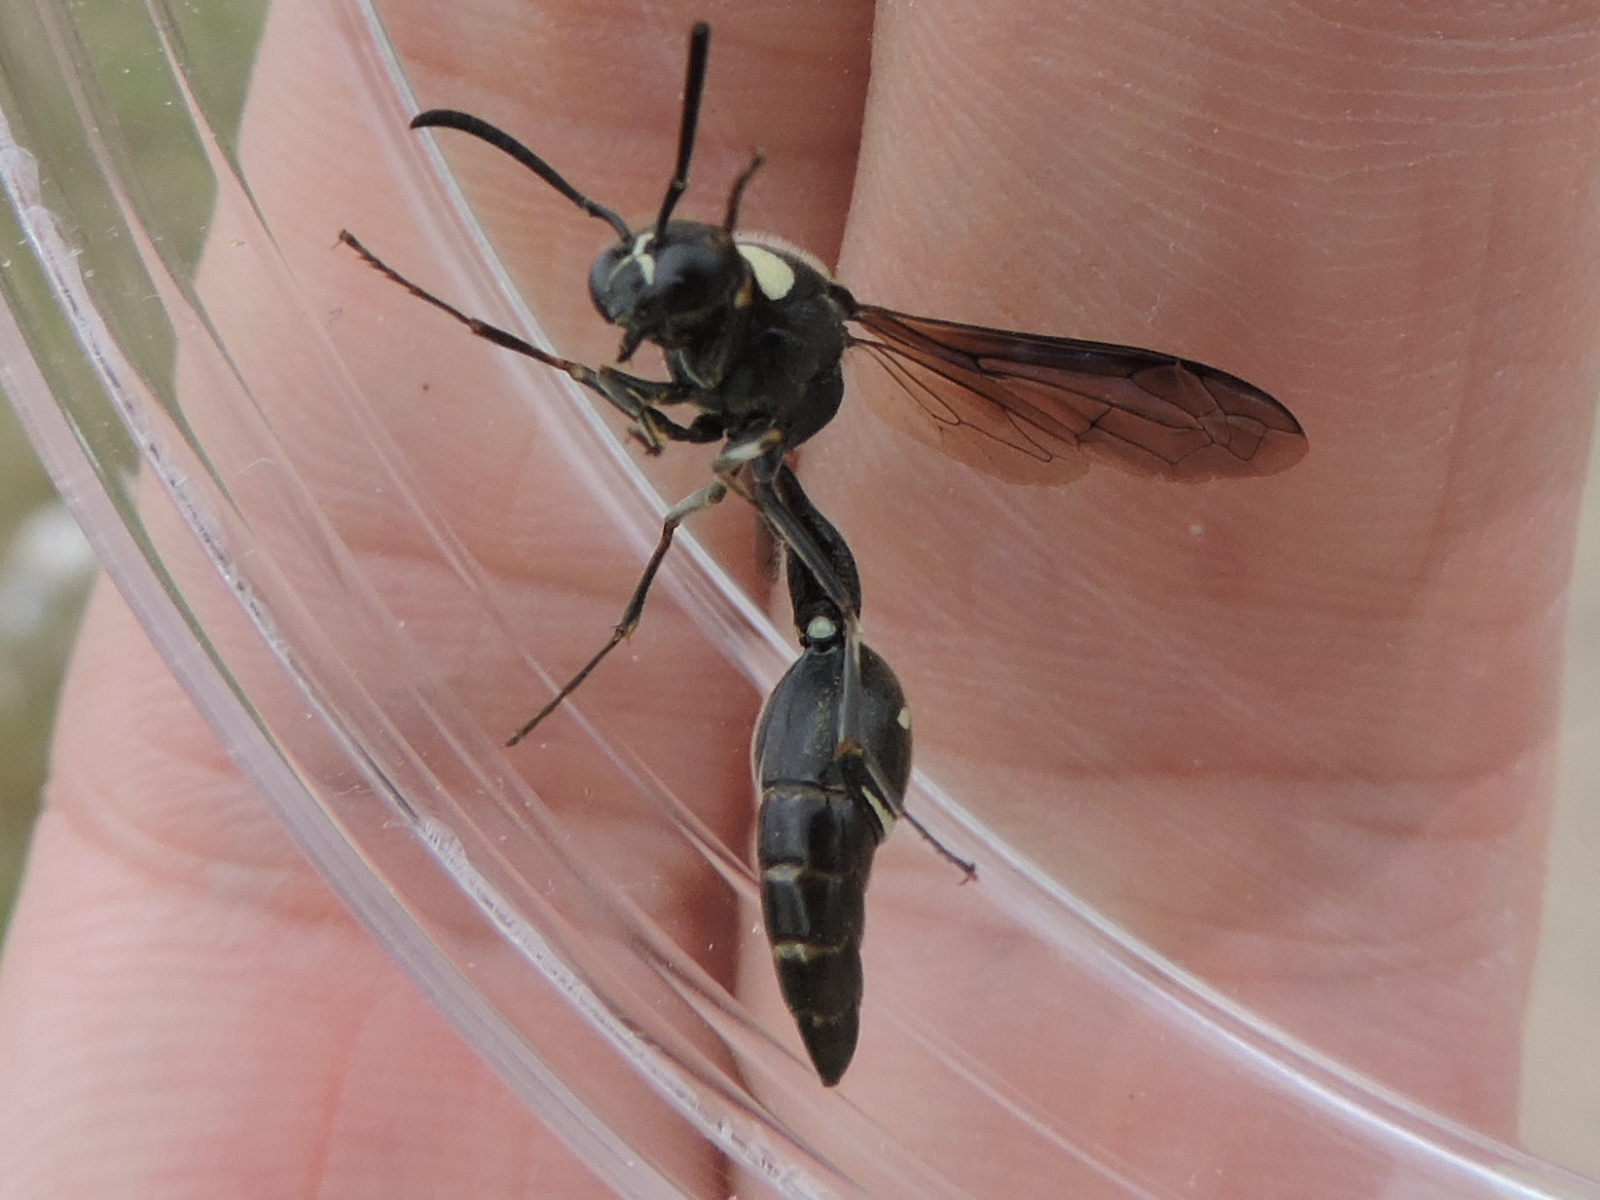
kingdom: Animalia
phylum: Arthropoda
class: Insecta
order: Hymenoptera
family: Vespidae
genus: Eumenes
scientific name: Eumenes fraternus
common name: Fraternal potter wasp
